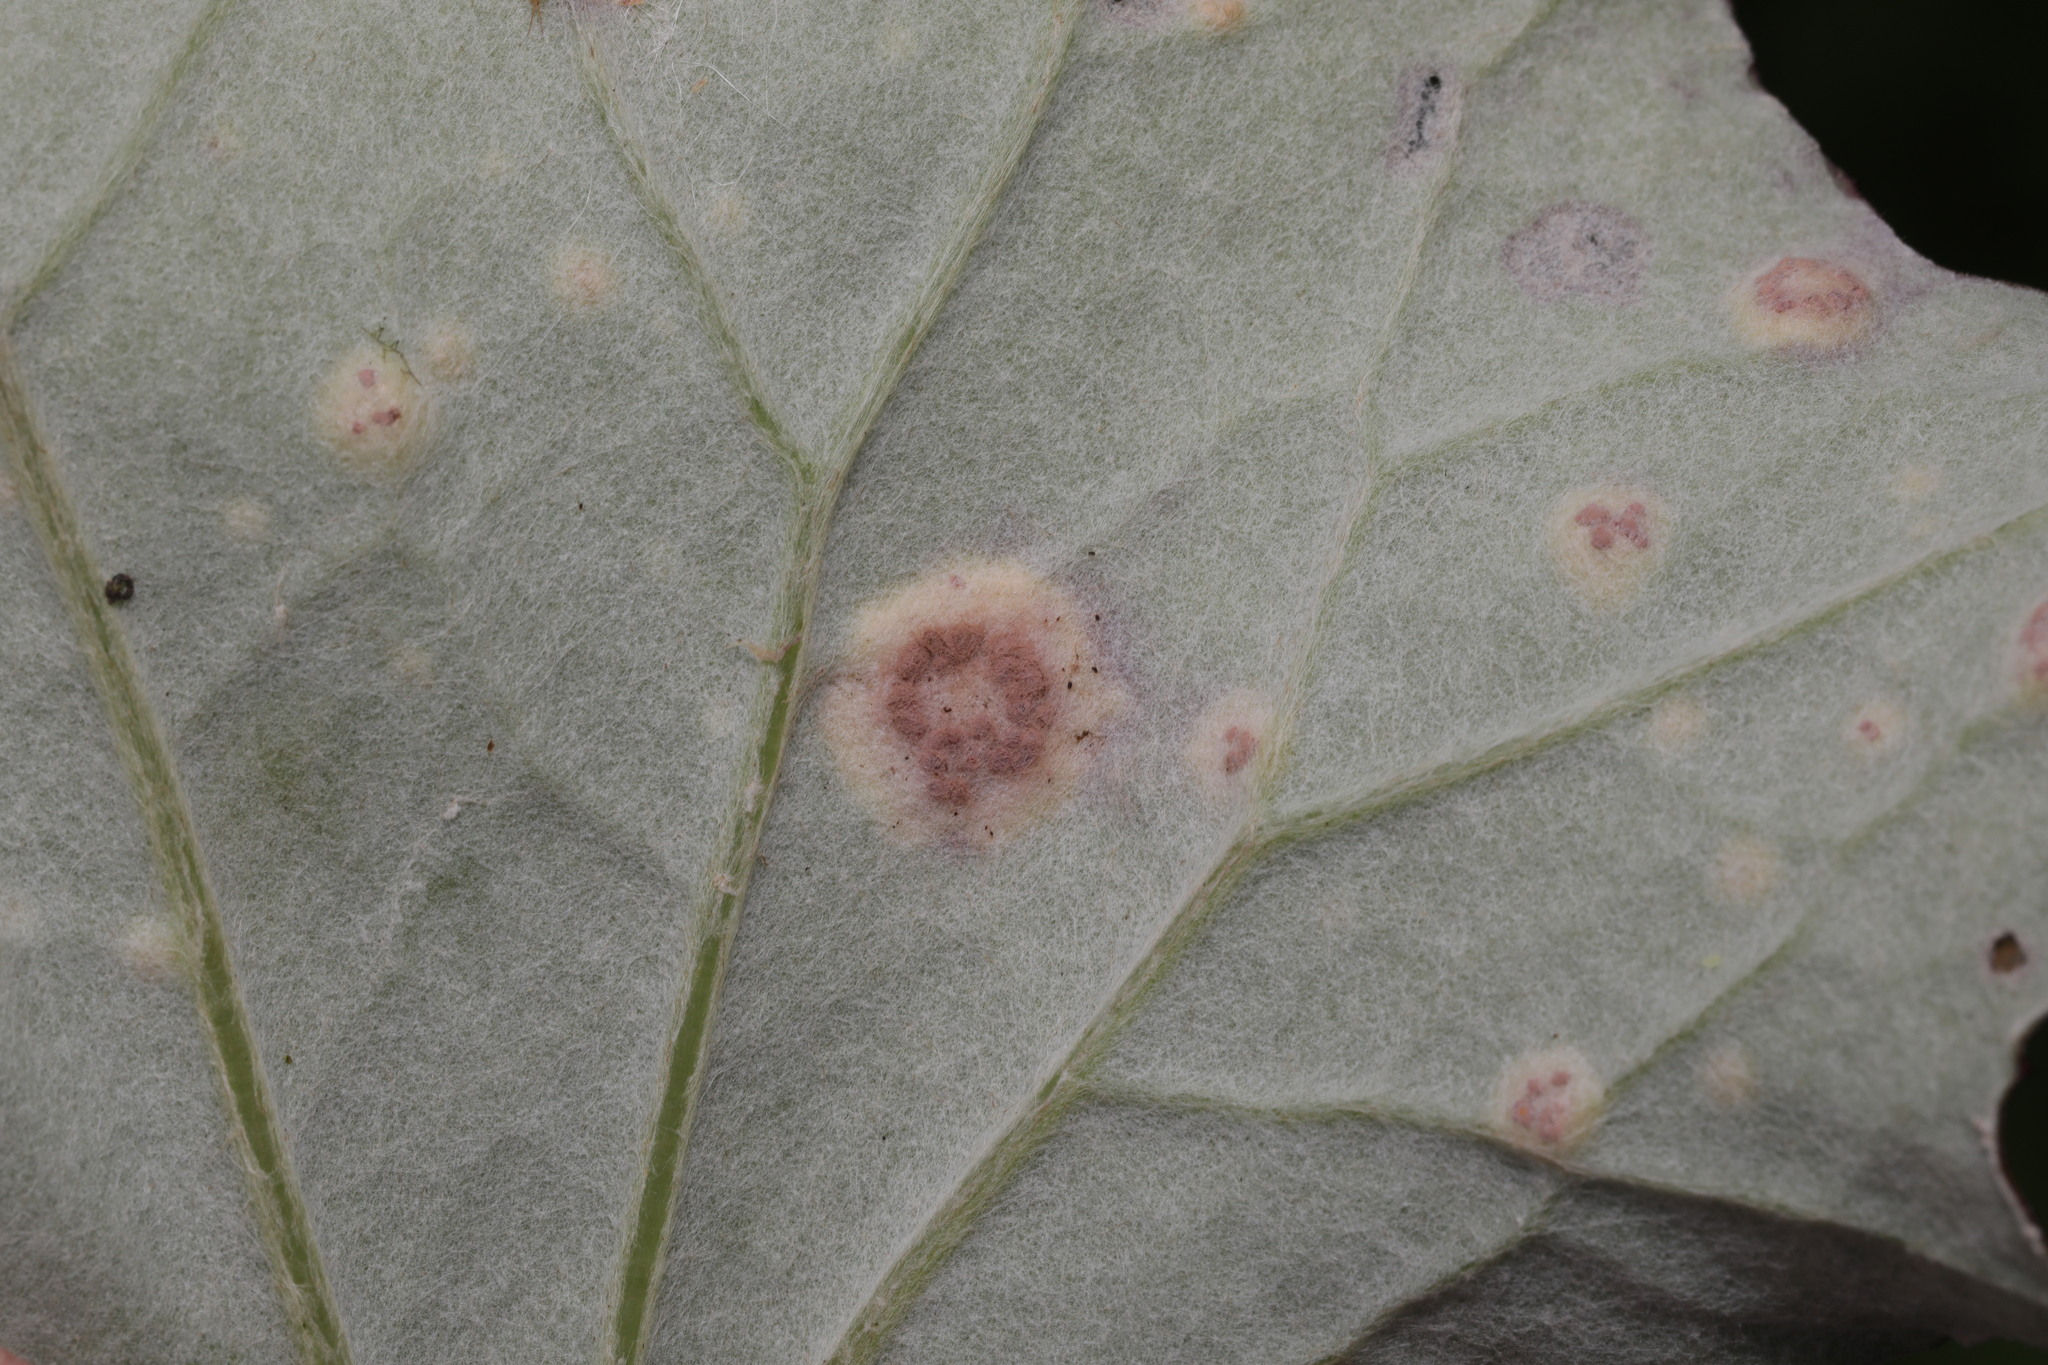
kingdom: Fungi
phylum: Basidiomycota
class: Pucciniomycetes
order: Helicobasidiales
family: Helicobasidiaceae
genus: Helicobasidium
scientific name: Helicobasidium purpureum
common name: Violet root rot
